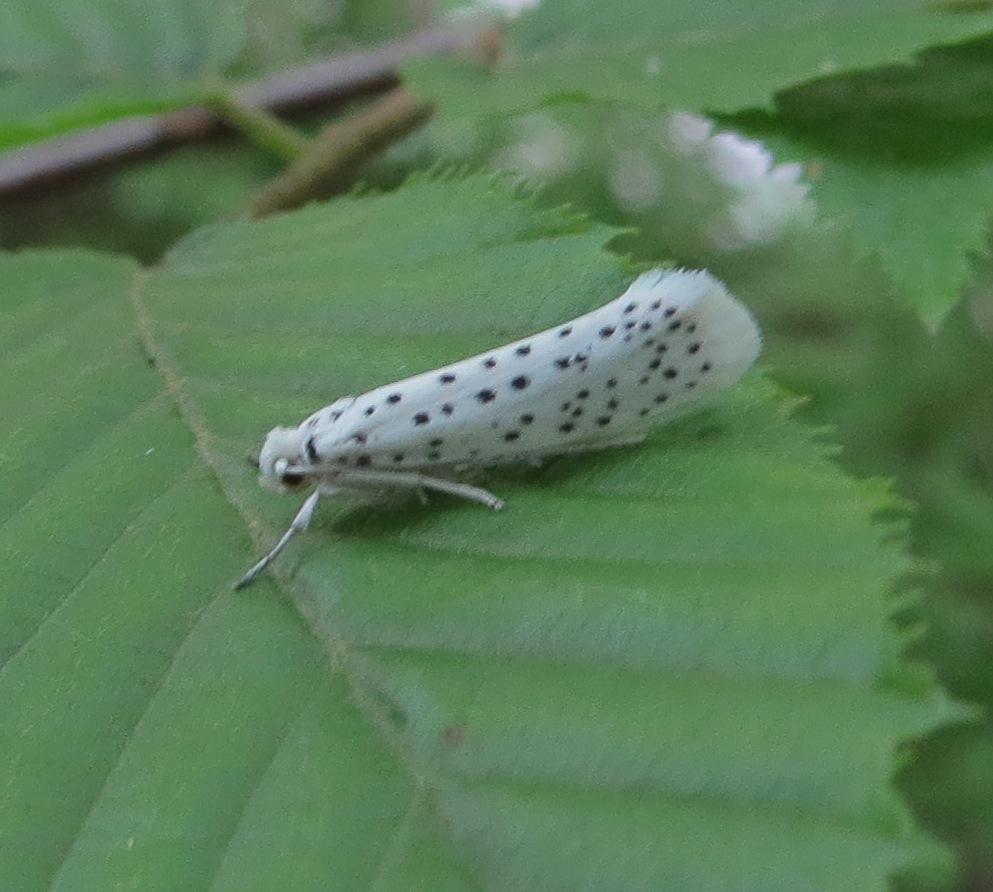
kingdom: Animalia
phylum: Arthropoda
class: Insecta
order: Lepidoptera
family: Yponomeutidae
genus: Yponomeuta
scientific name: Yponomeuta multipunctella
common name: American ermine moth
